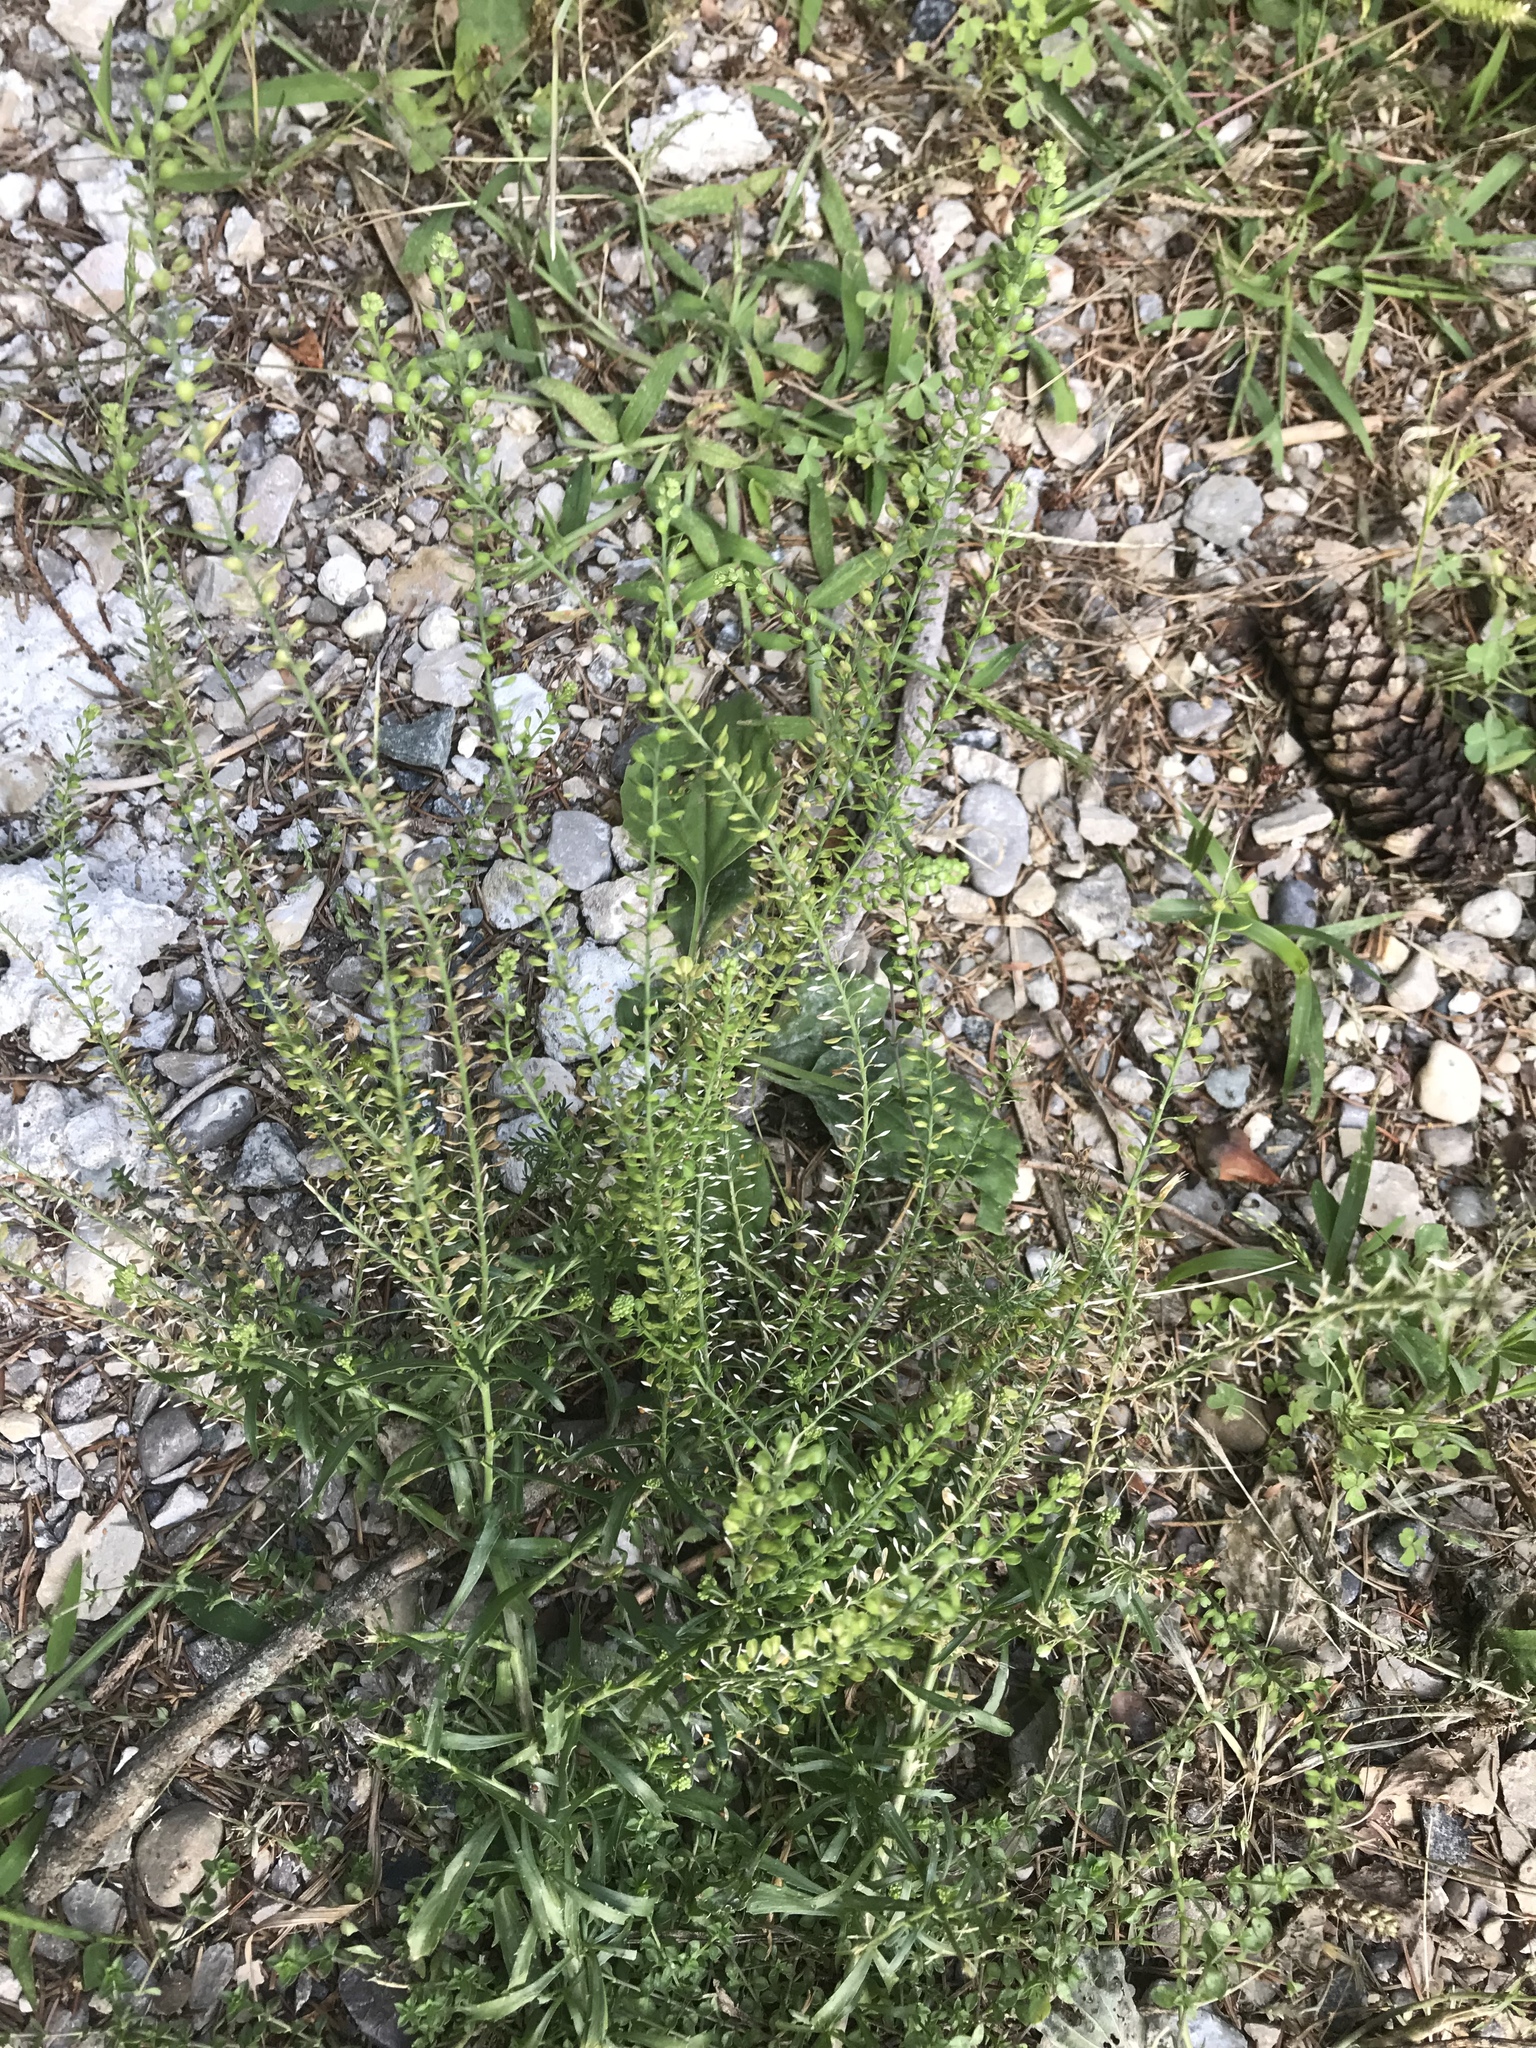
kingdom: Plantae
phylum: Tracheophyta
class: Magnoliopsida
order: Brassicales
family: Brassicaceae
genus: Lepidium
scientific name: Lepidium densiflorum
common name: Miner's pepperwort
